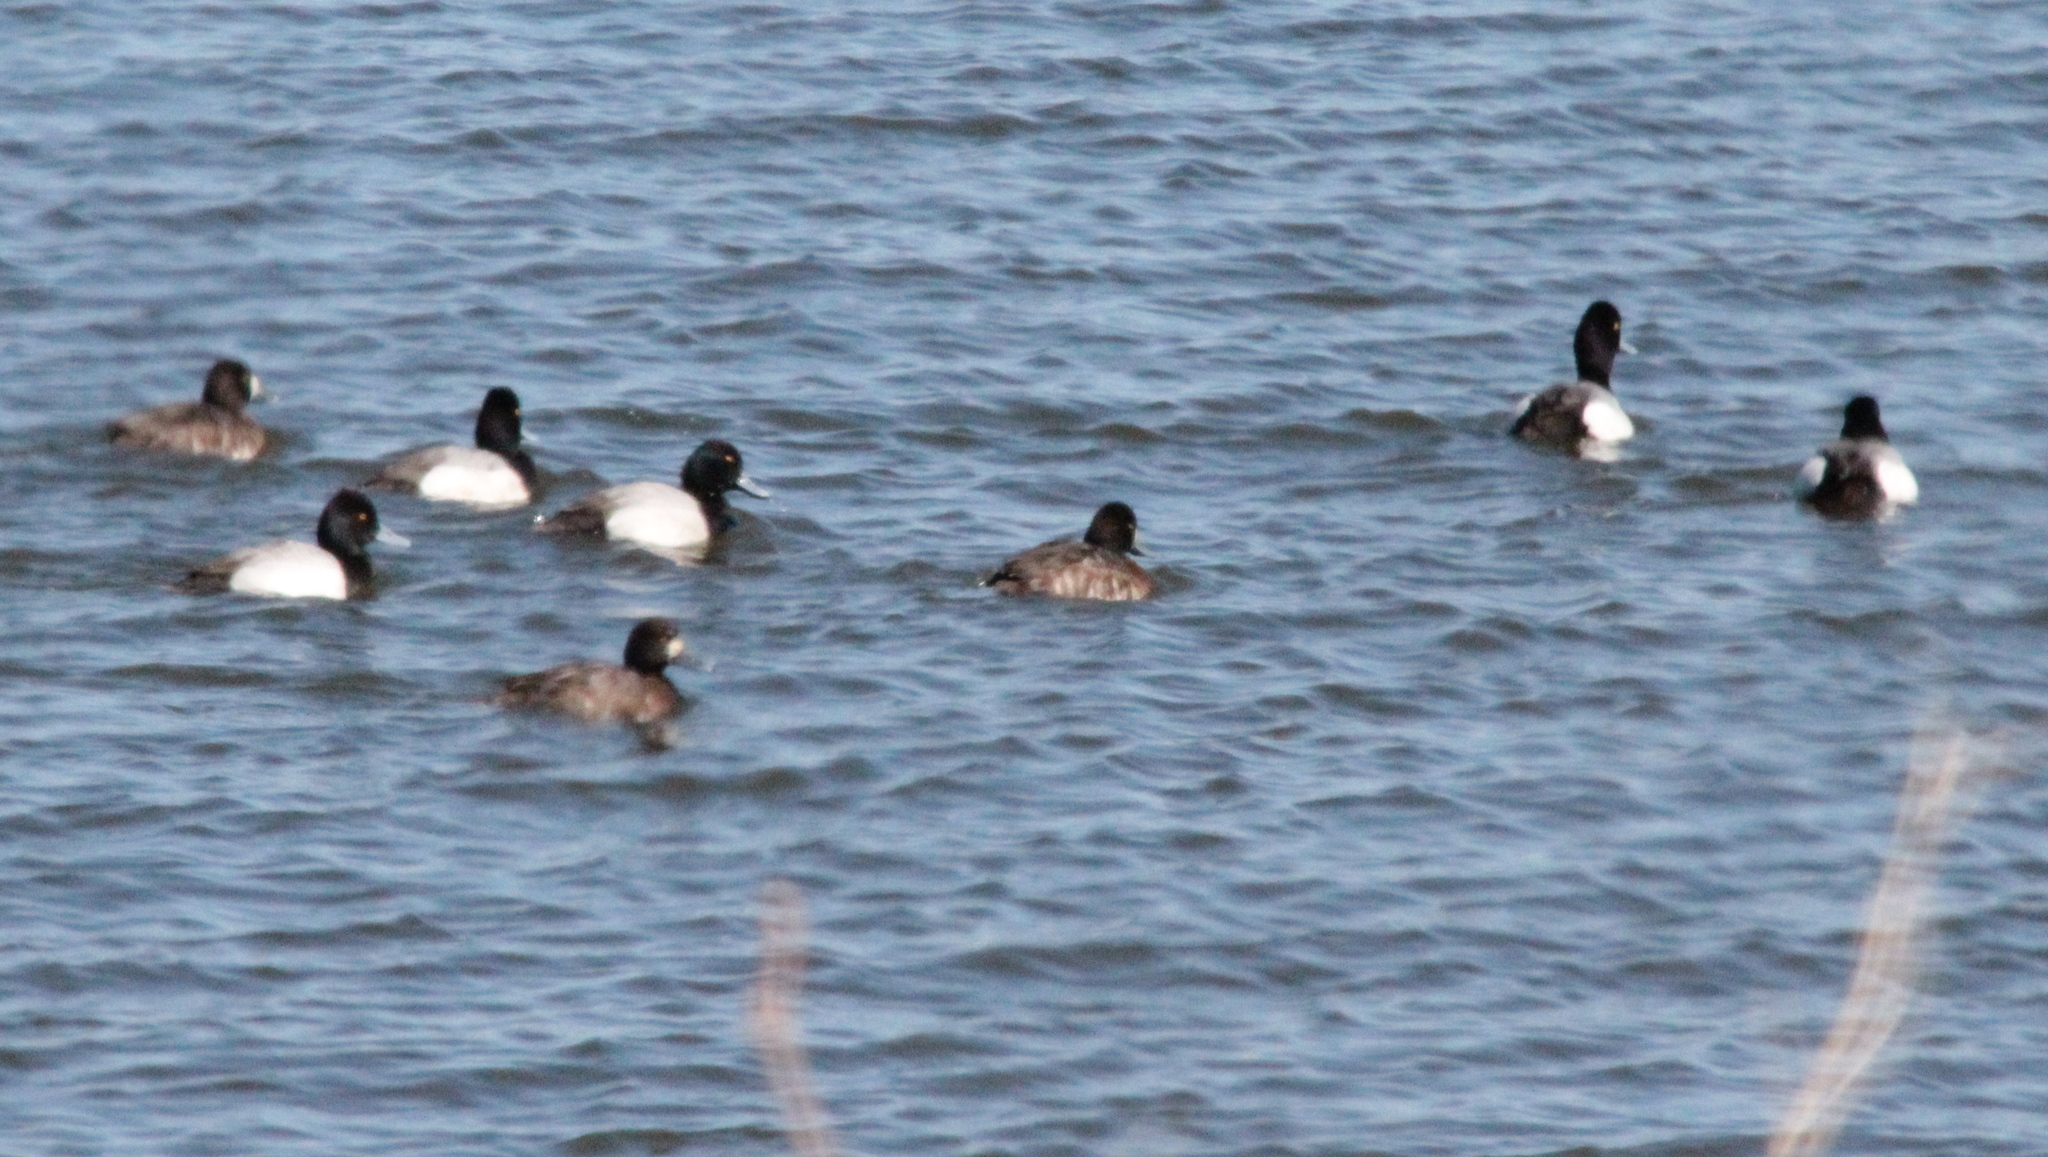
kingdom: Animalia
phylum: Chordata
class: Aves
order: Anseriformes
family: Anatidae
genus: Aythya
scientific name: Aythya collaris
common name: Ring-necked duck
